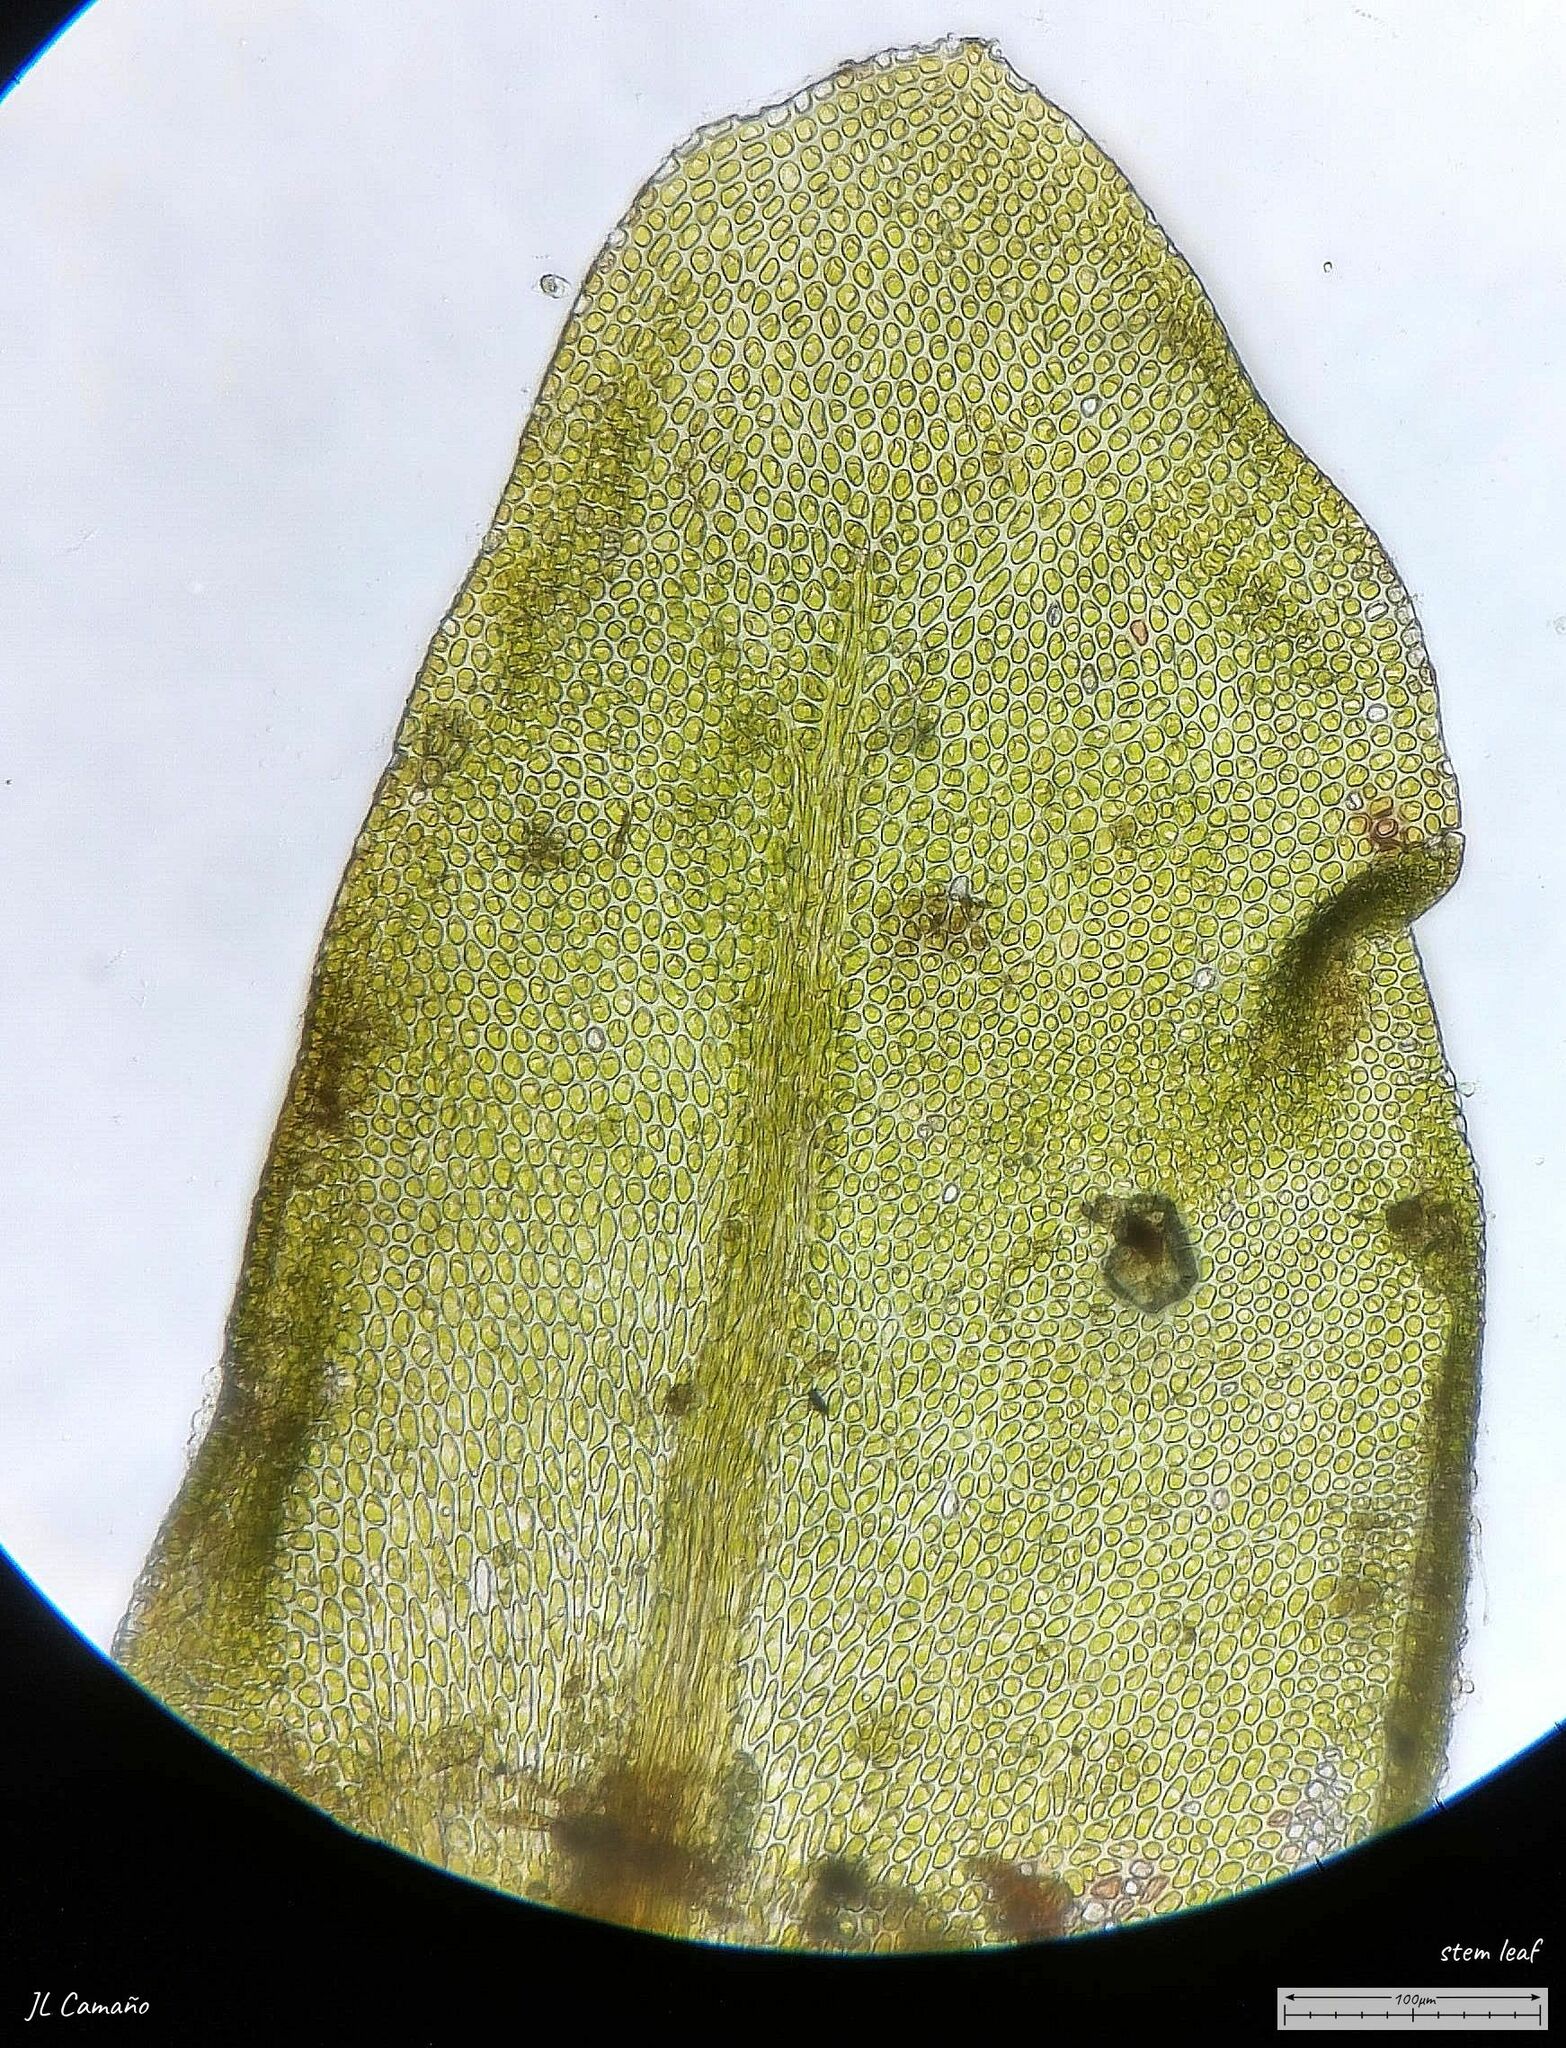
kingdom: Plantae
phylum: Bryophyta
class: Bryopsida
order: Hypnales
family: Neckeraceae
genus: Leptodon
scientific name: Leptodon smithii
